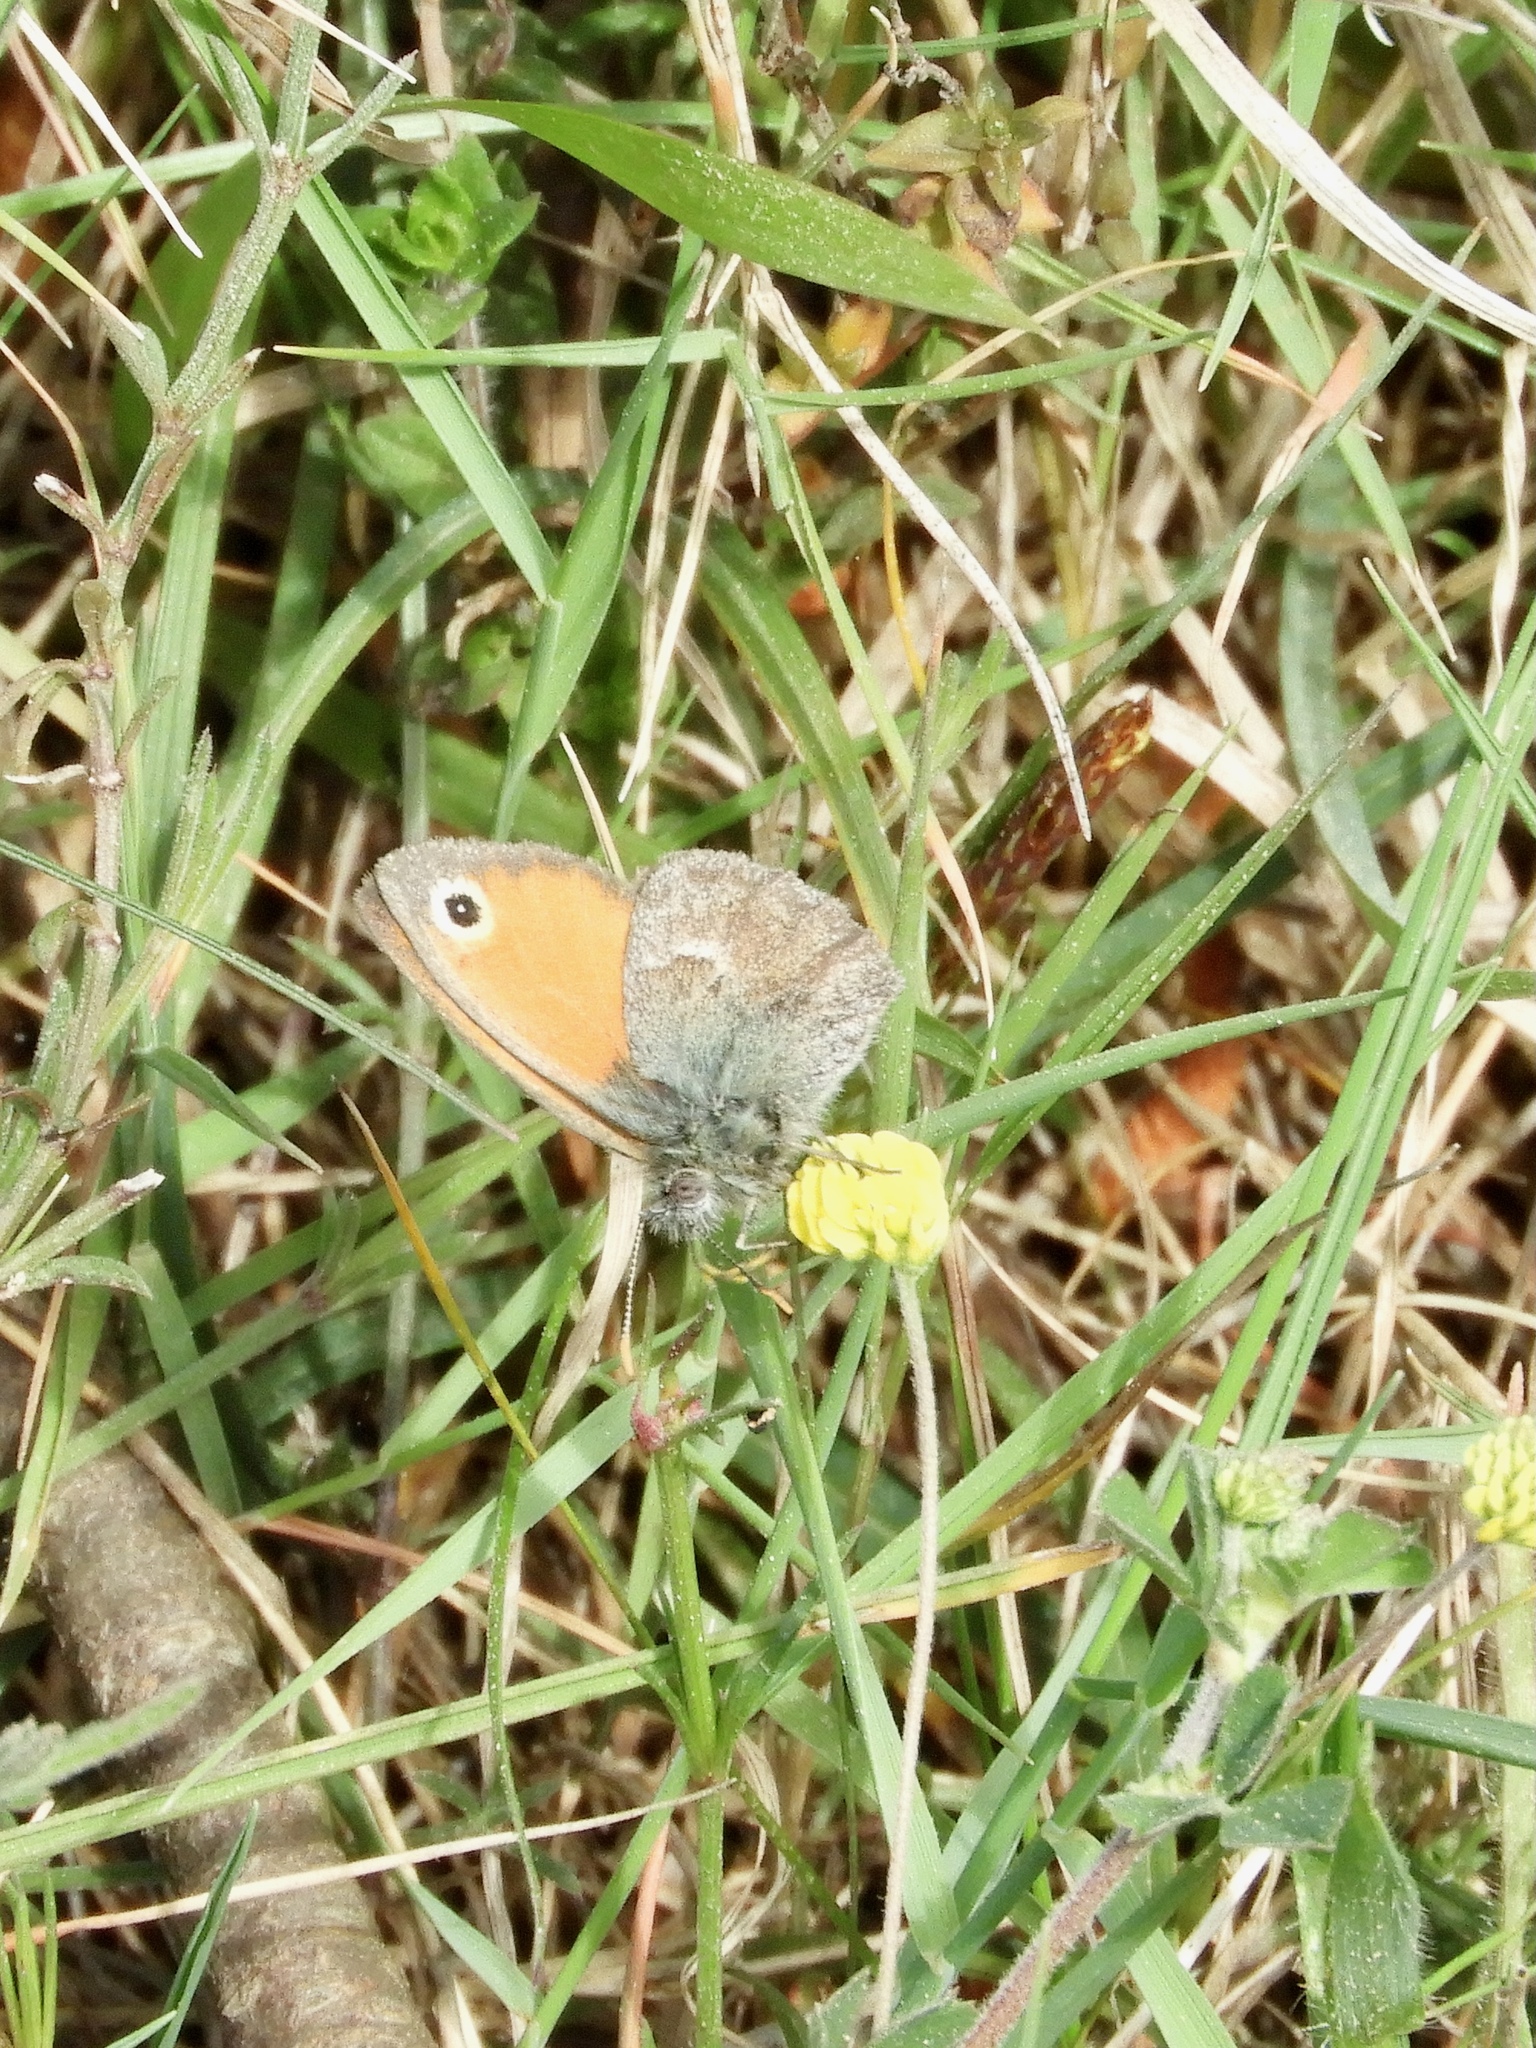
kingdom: Animalia
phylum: Arthropoda
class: Insecta
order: Lepidoptera
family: Nymphalidae
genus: Coenonympha
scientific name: Coenonympha pamphilus
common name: Small heath
